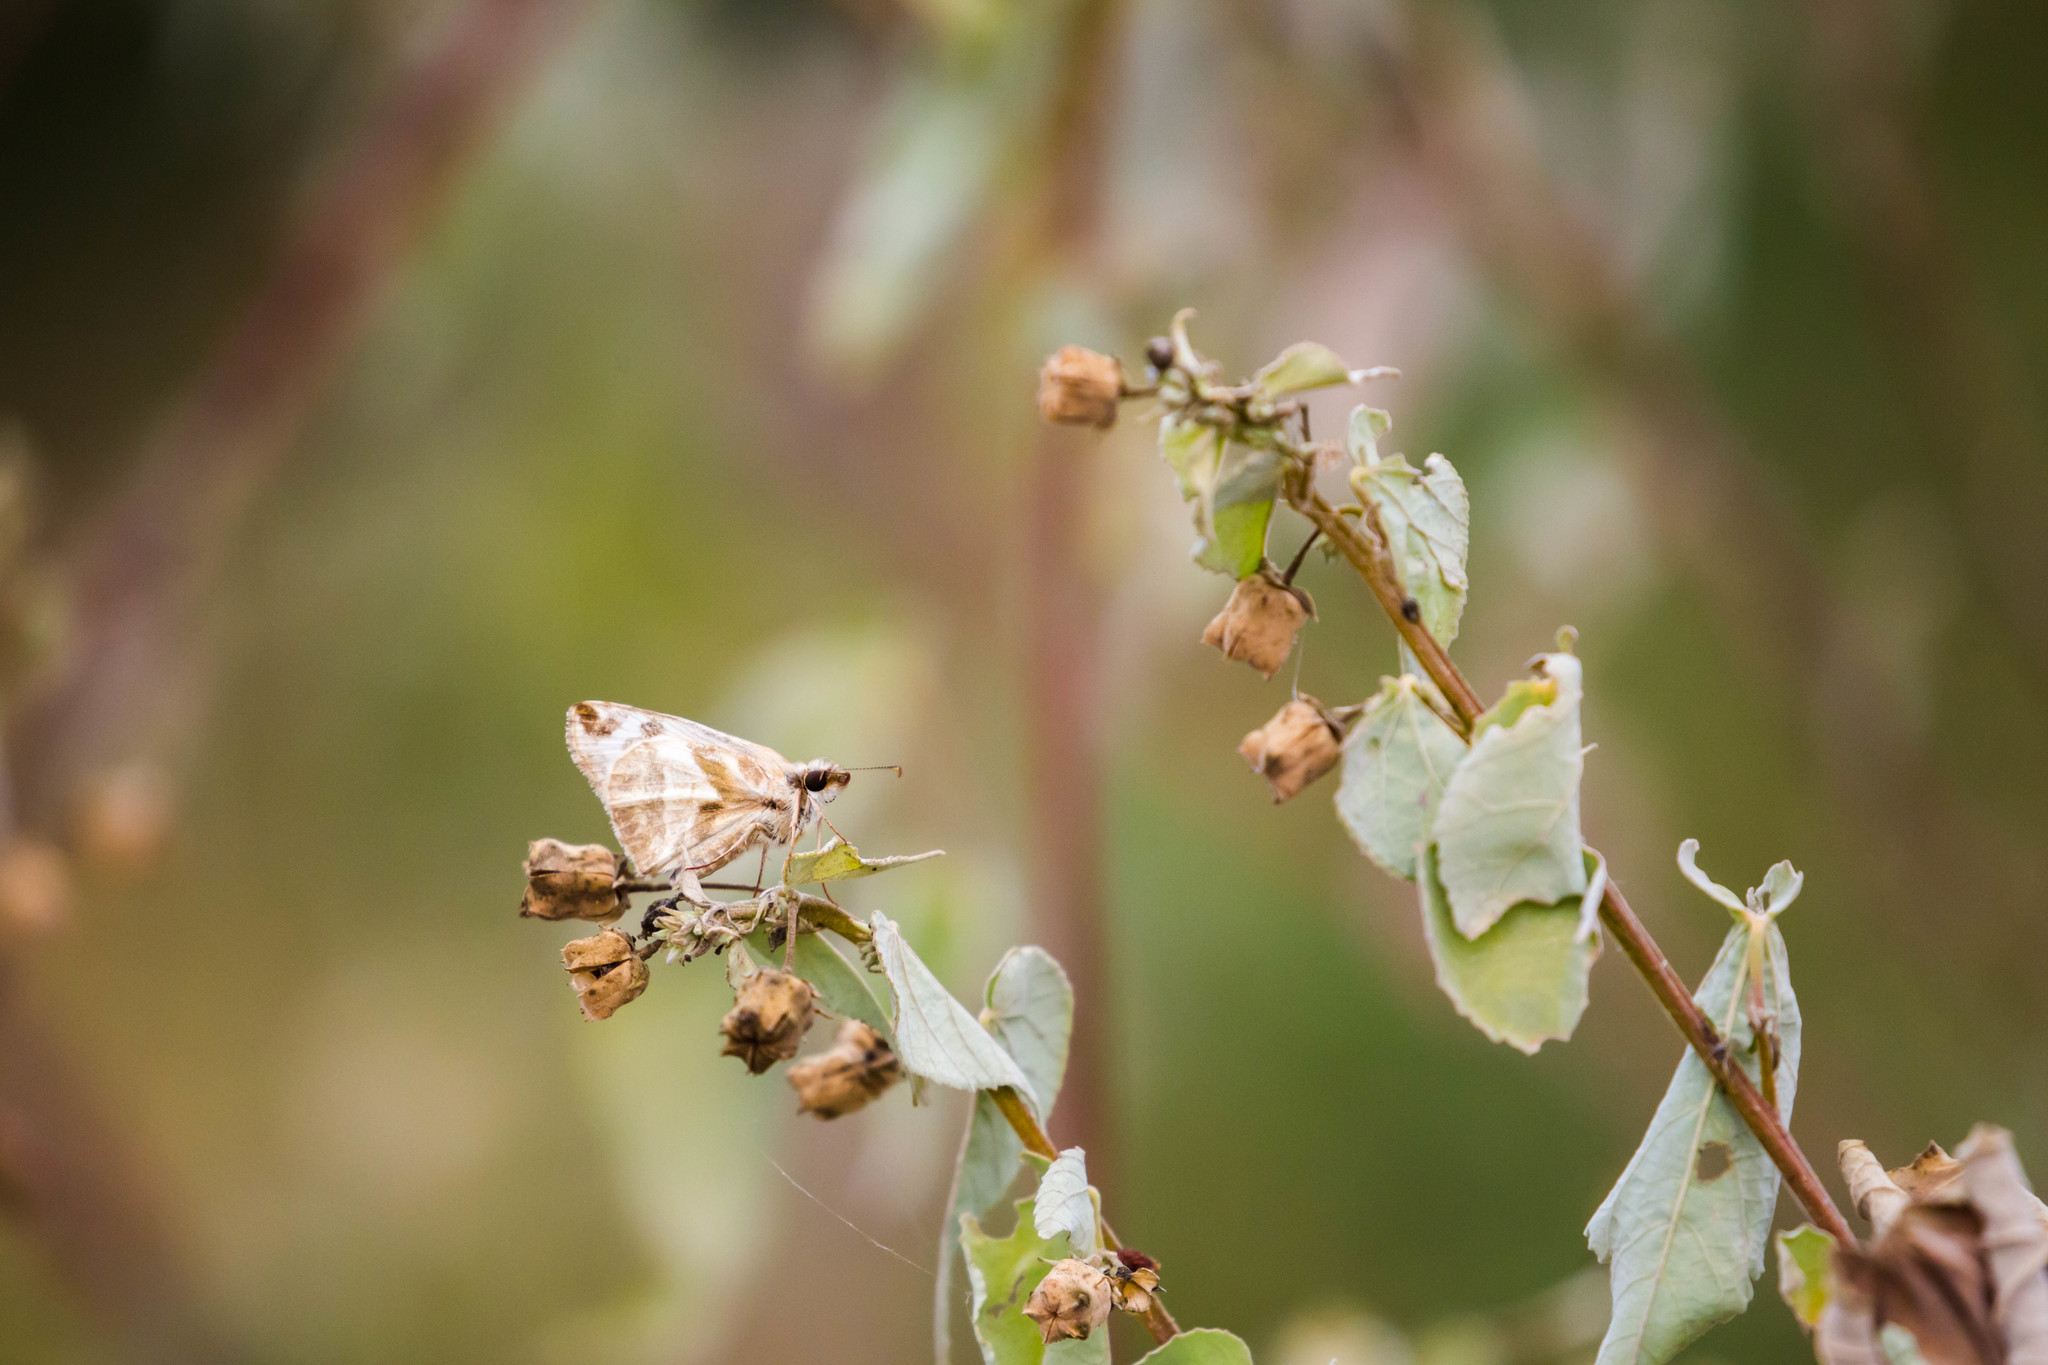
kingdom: Animalia
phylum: Arthropoda
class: Insecta
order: Lepidoptera
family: Hesperiidae
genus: Heliopetes
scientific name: Heliopetes laviana
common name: Laviana white-skipper
